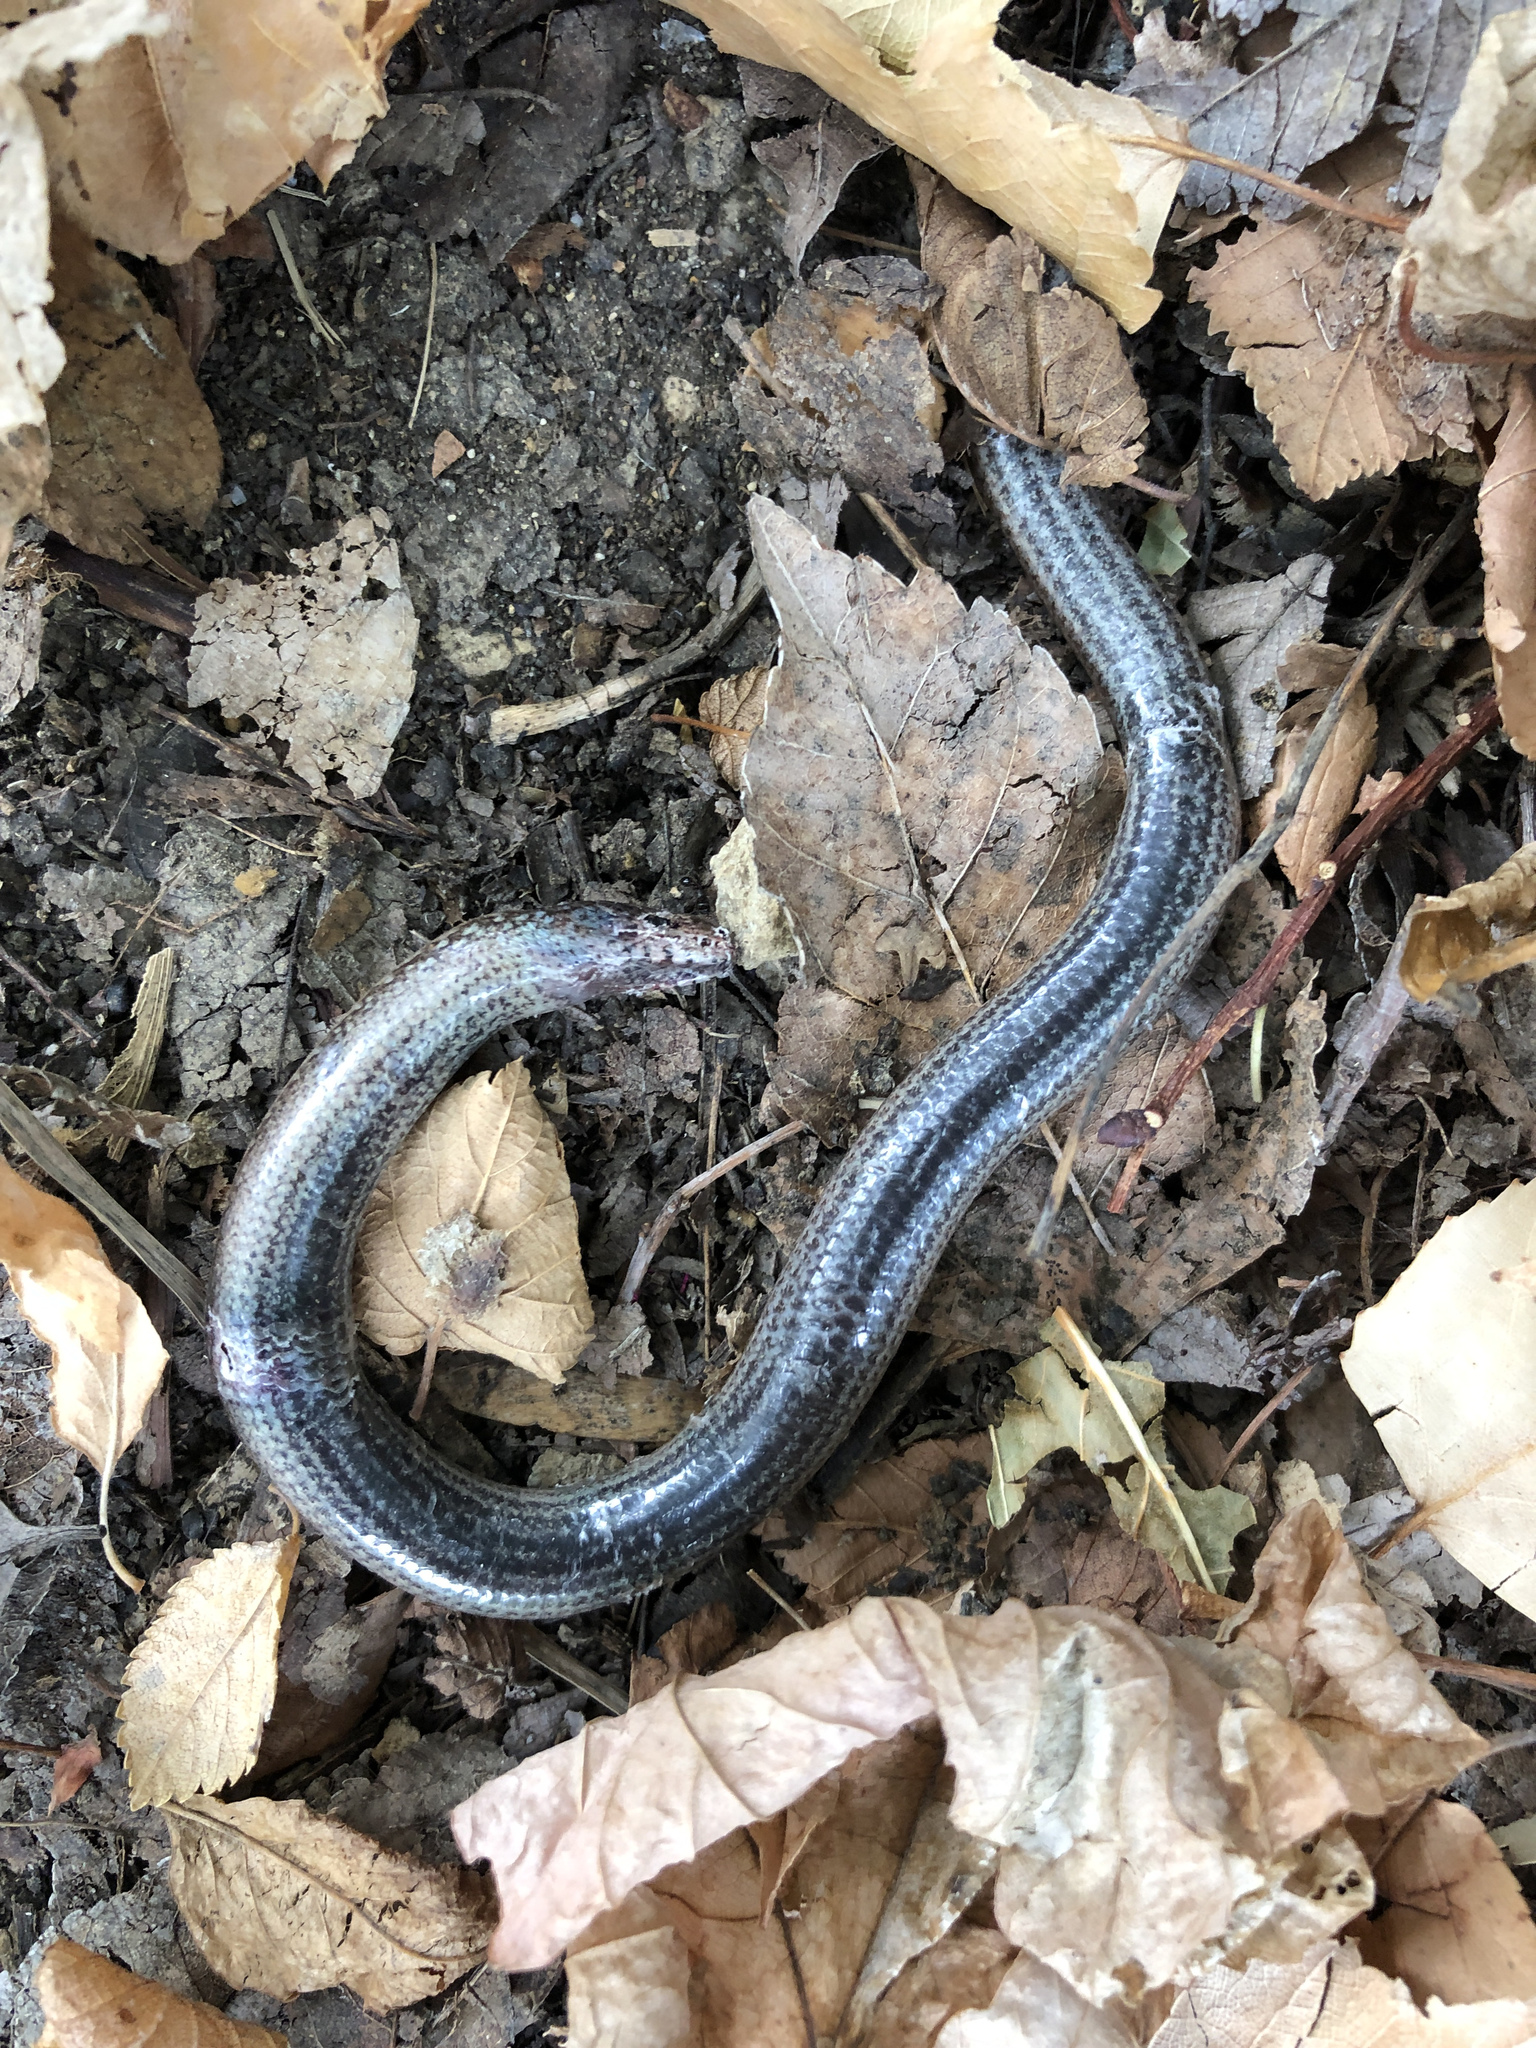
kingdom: Animalia
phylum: Chordata
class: Squamata
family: Anguidae
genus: Anguis
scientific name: Anguis veronensis
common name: Italian slow worm
